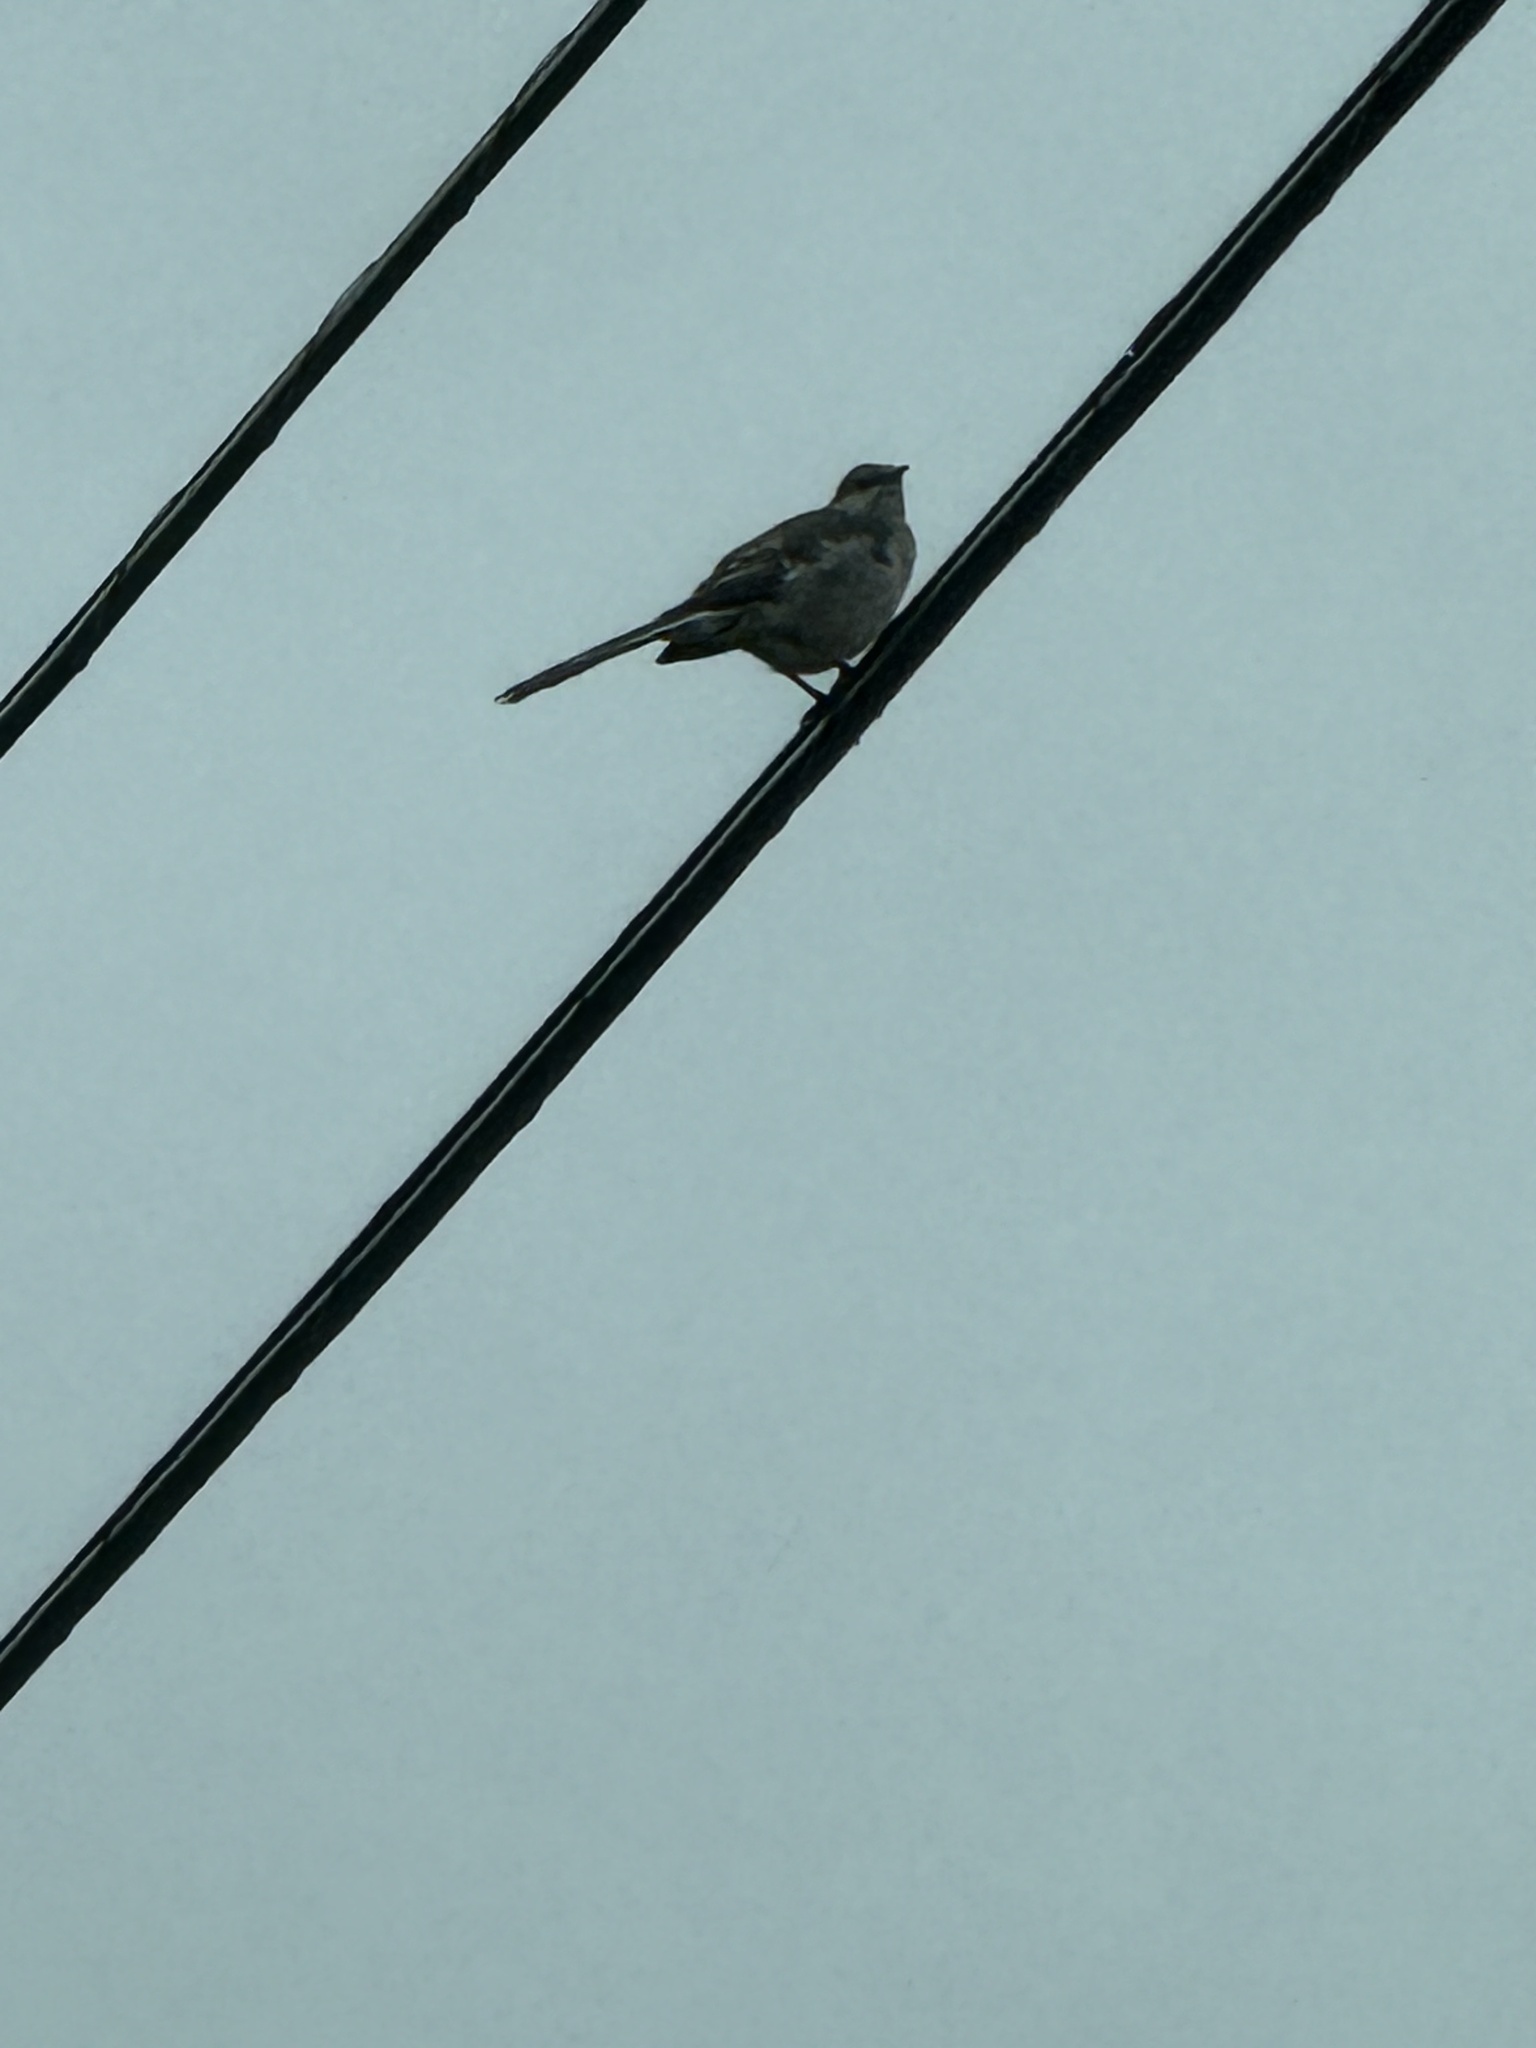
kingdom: Animalia
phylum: Chordata
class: Aves
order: Passeriformes
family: Mimidae
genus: Mimus
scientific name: Mimus polyglottos
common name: Northern mockingbird
